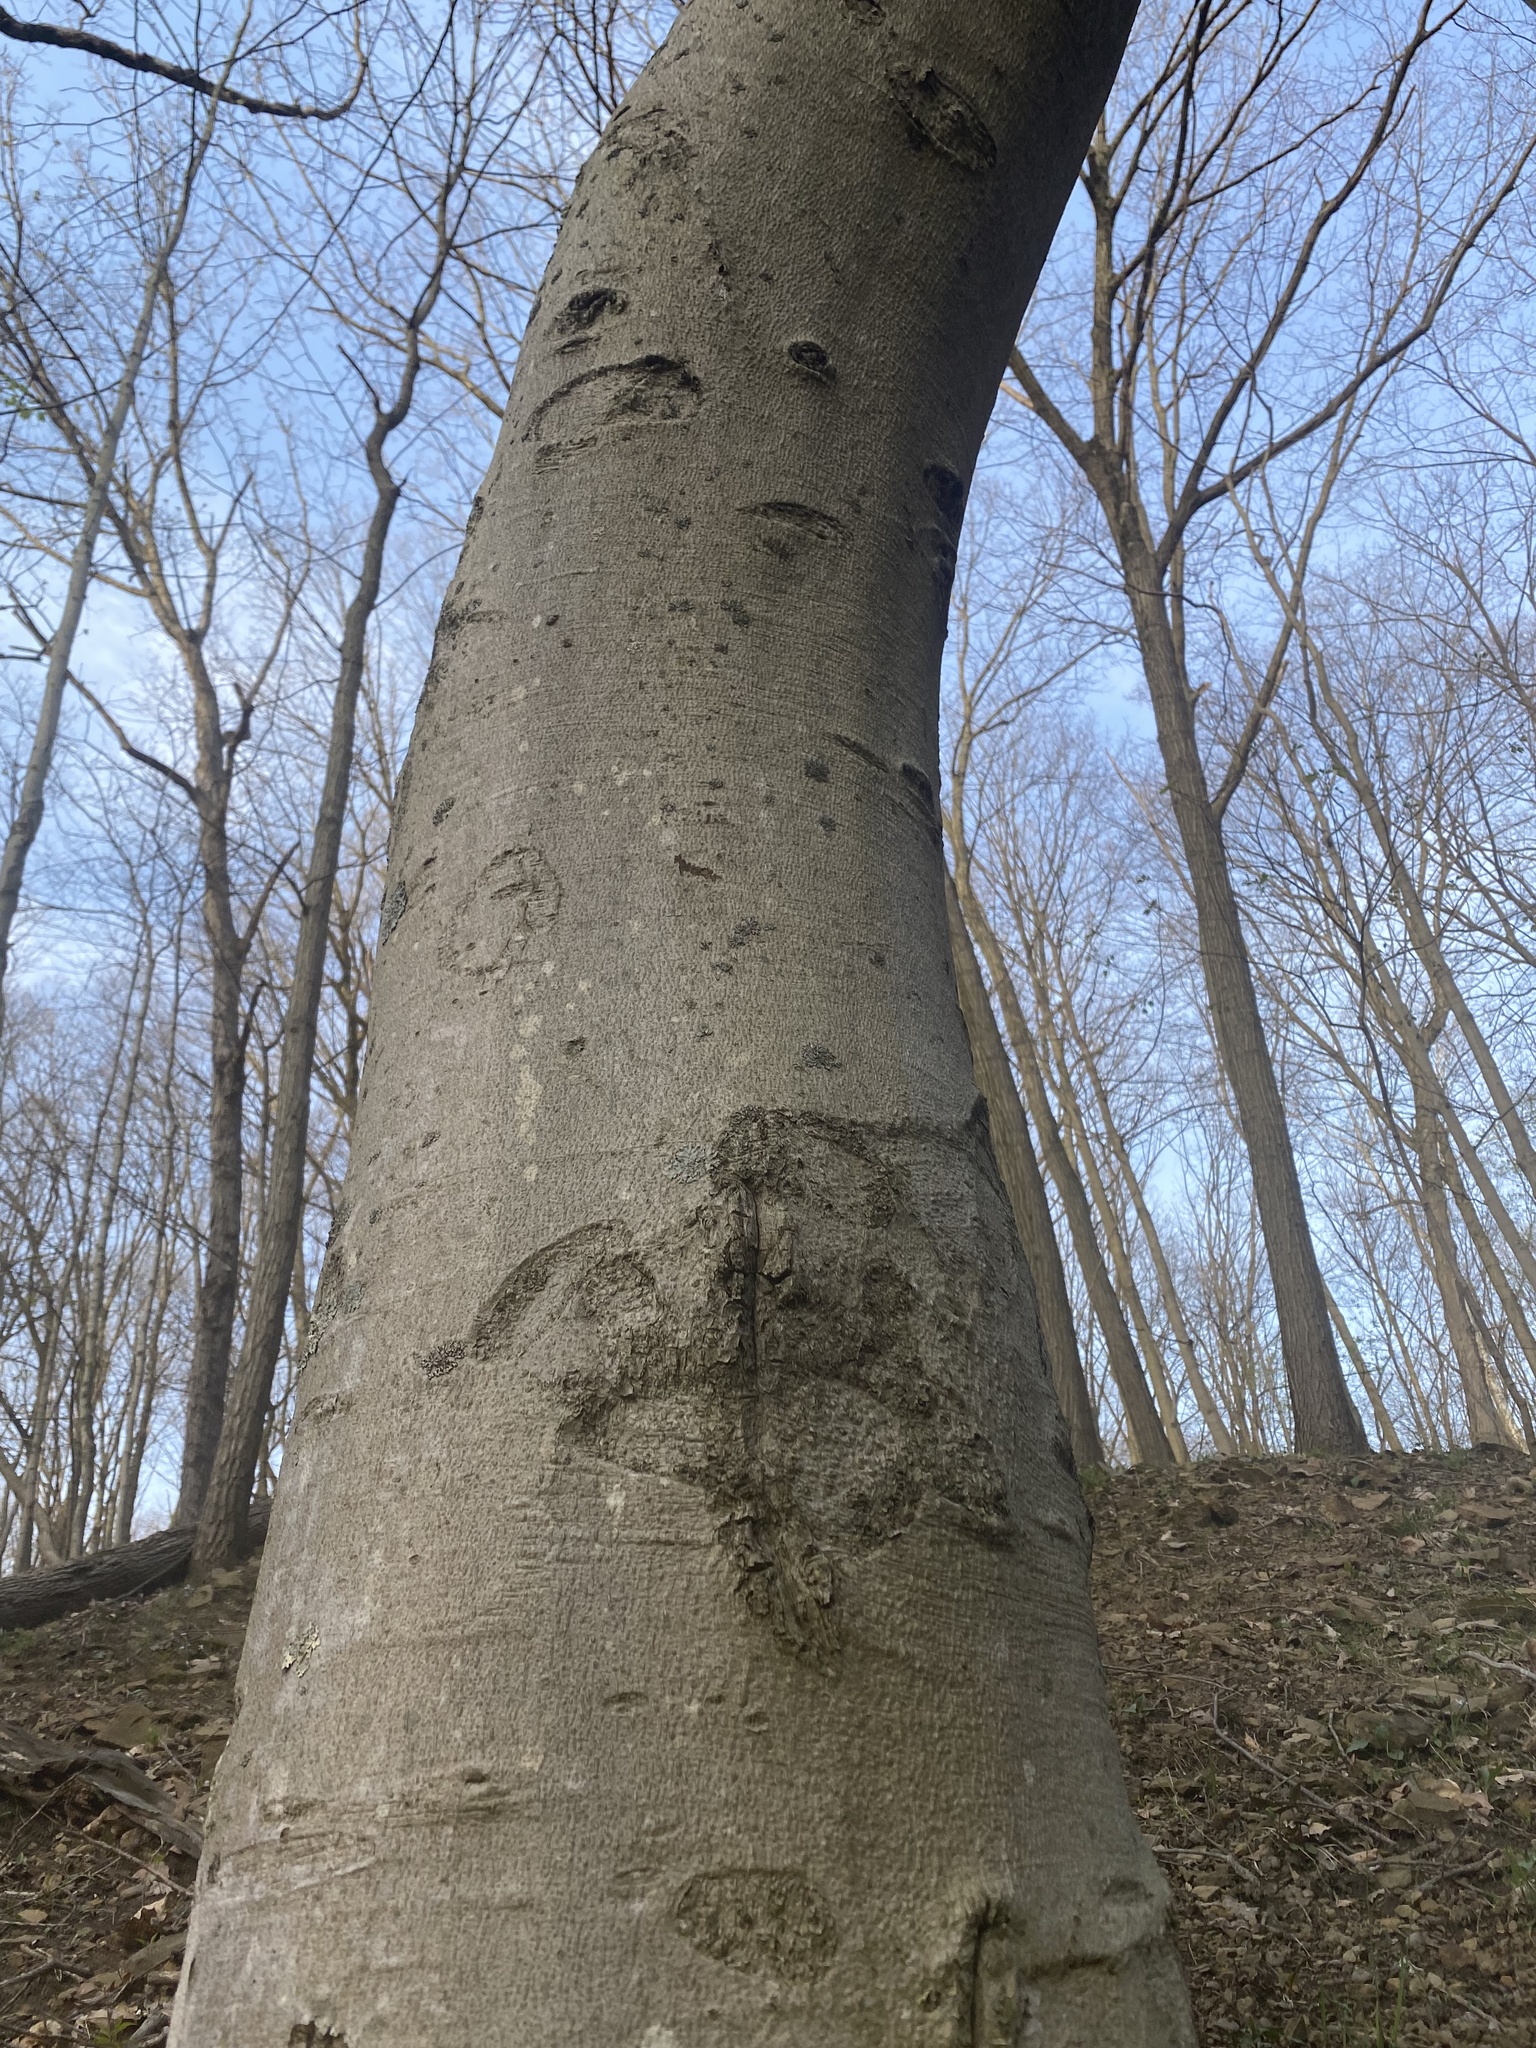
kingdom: Plantae
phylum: Tracheophyta
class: Magnoliopsida
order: Fagales
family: Fagaceae
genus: Fagus
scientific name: Fagus grandifolia
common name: American beech
